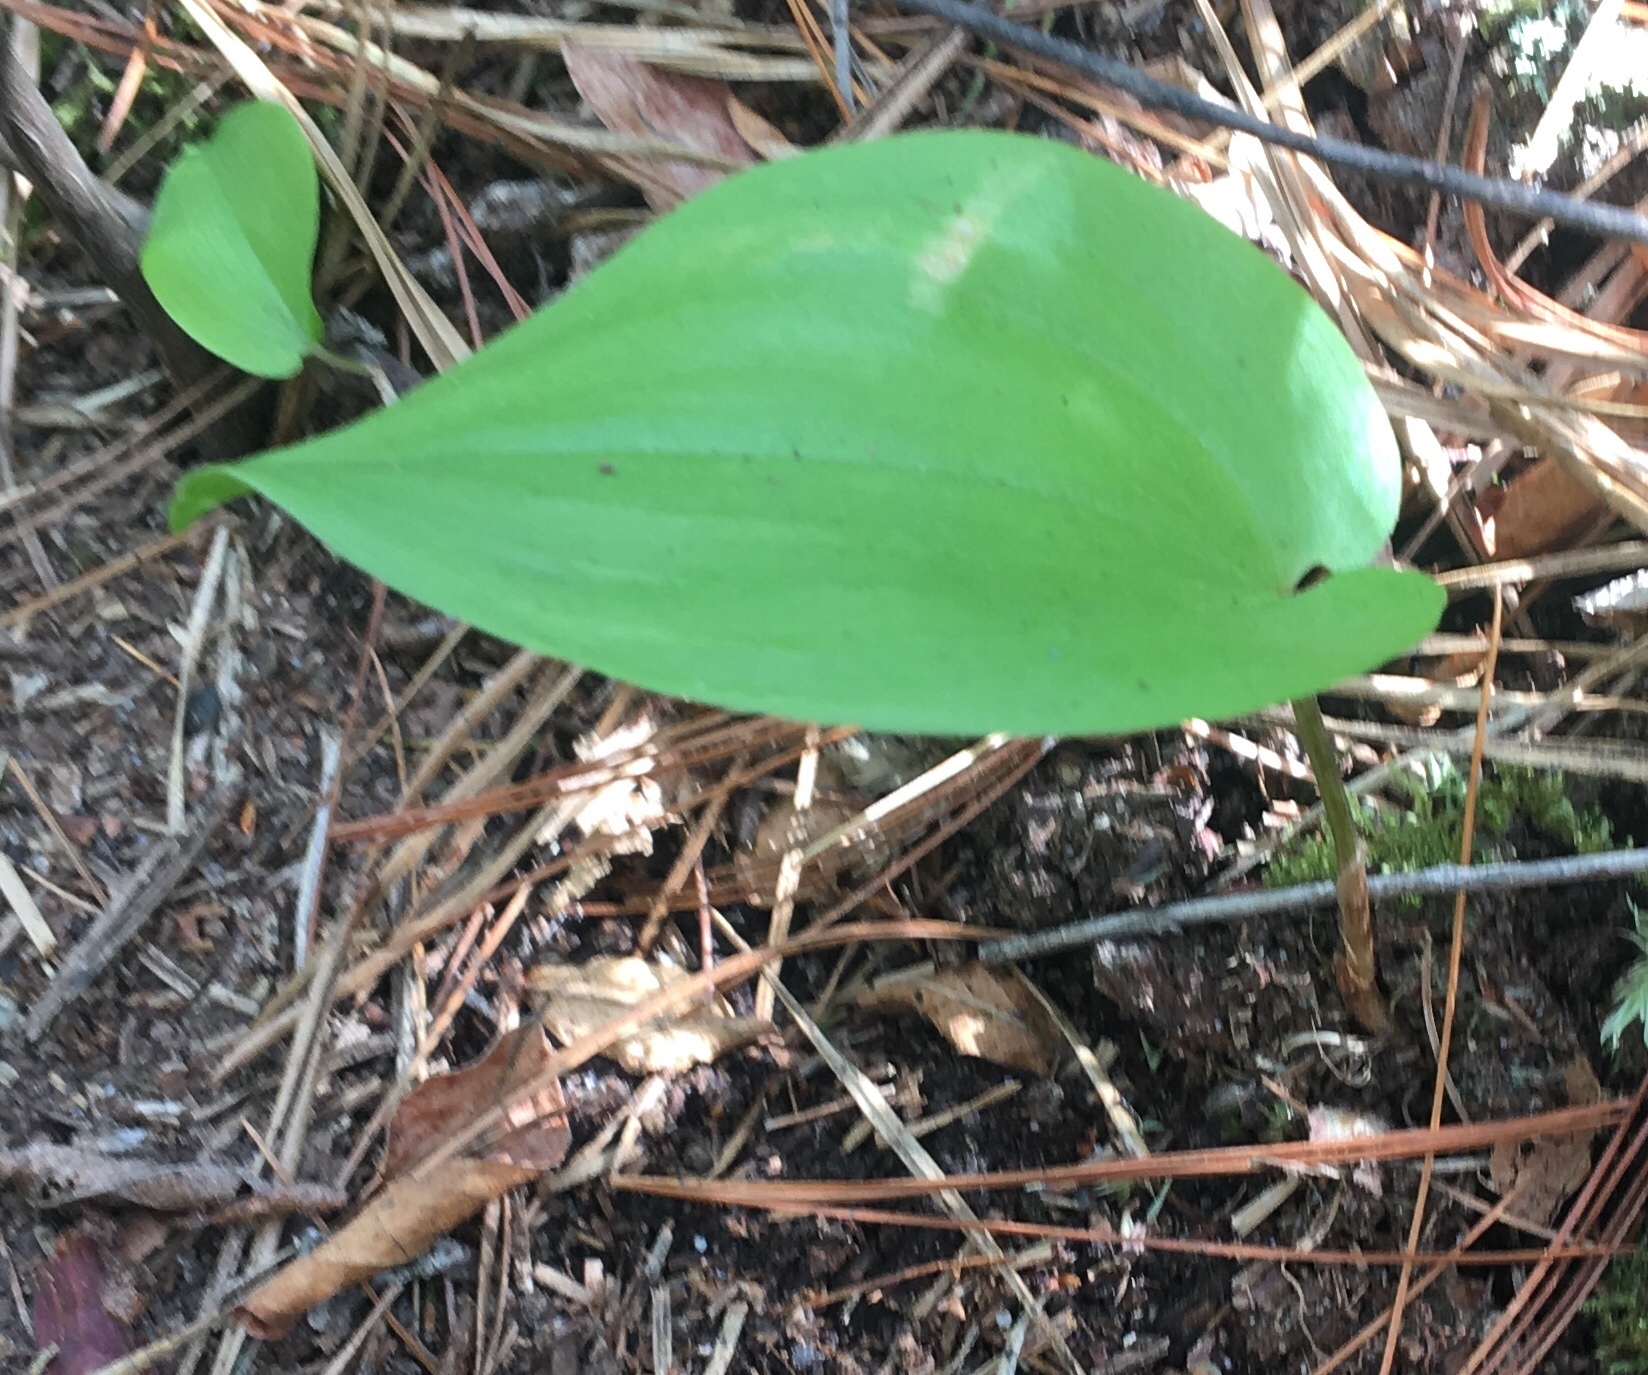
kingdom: Plantae
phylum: Tracheophyta
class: Liliopsida
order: Asparagales
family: Asparagaceae
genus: Maianthemum
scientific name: Maianthemum canadense
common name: False lily-of-the-valley
